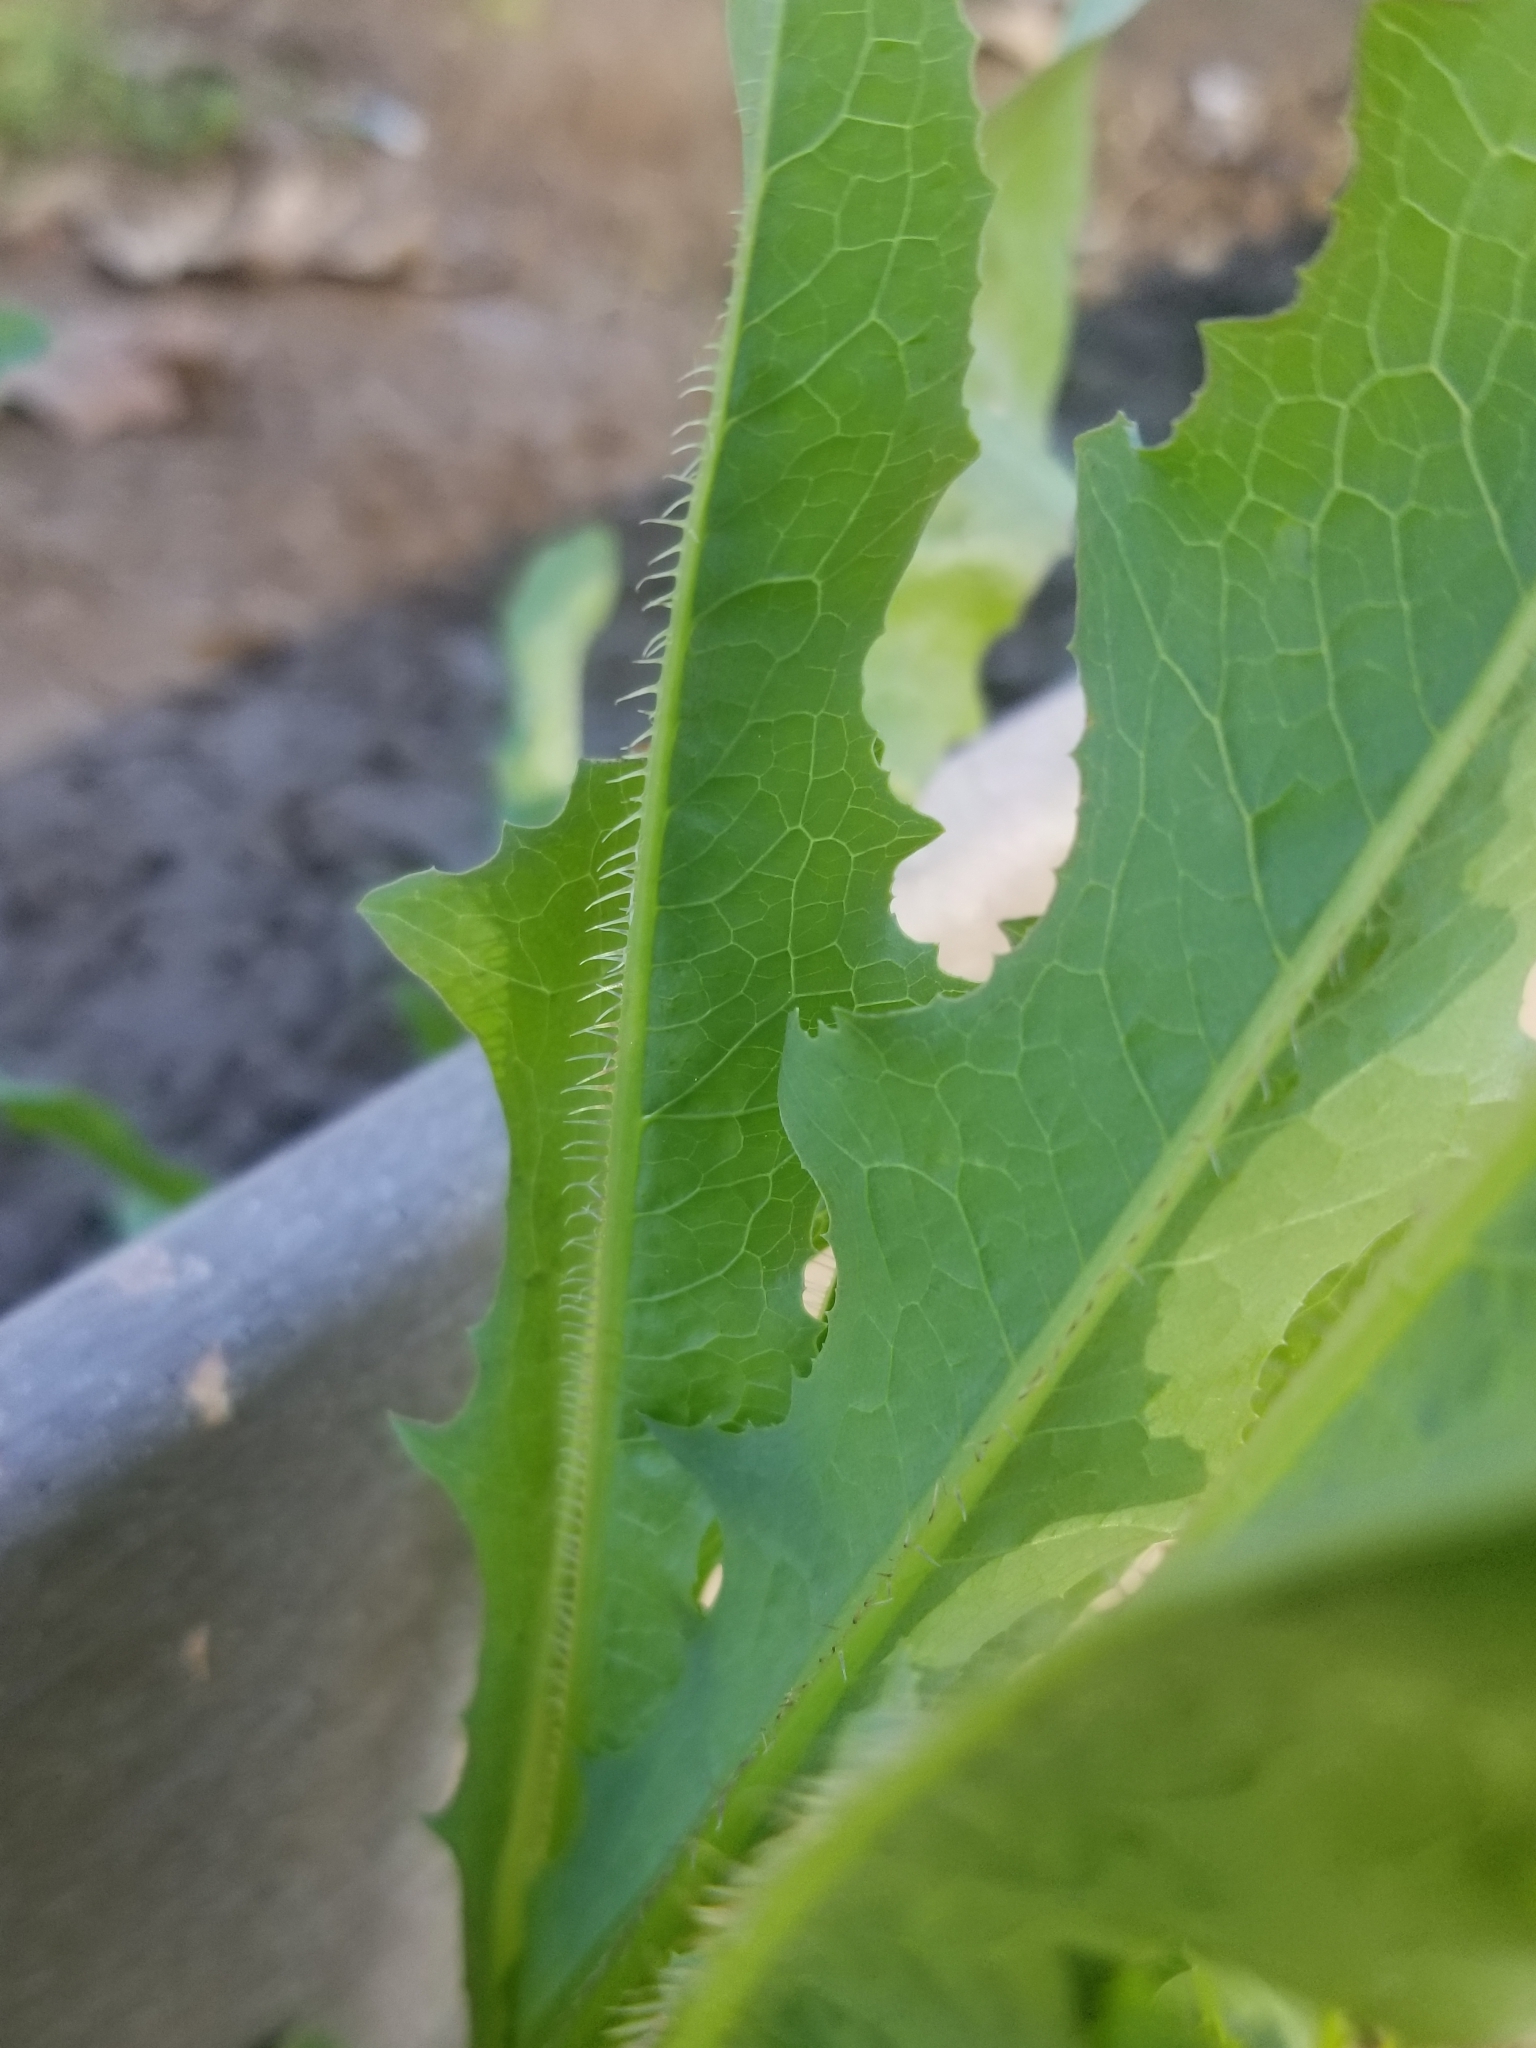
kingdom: Plantae
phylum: Tracheophyta
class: Magnoliopsida
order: Asterales
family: Asteraceae
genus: Lactuca
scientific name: Lactuca serriola
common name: Prickly lettuce
